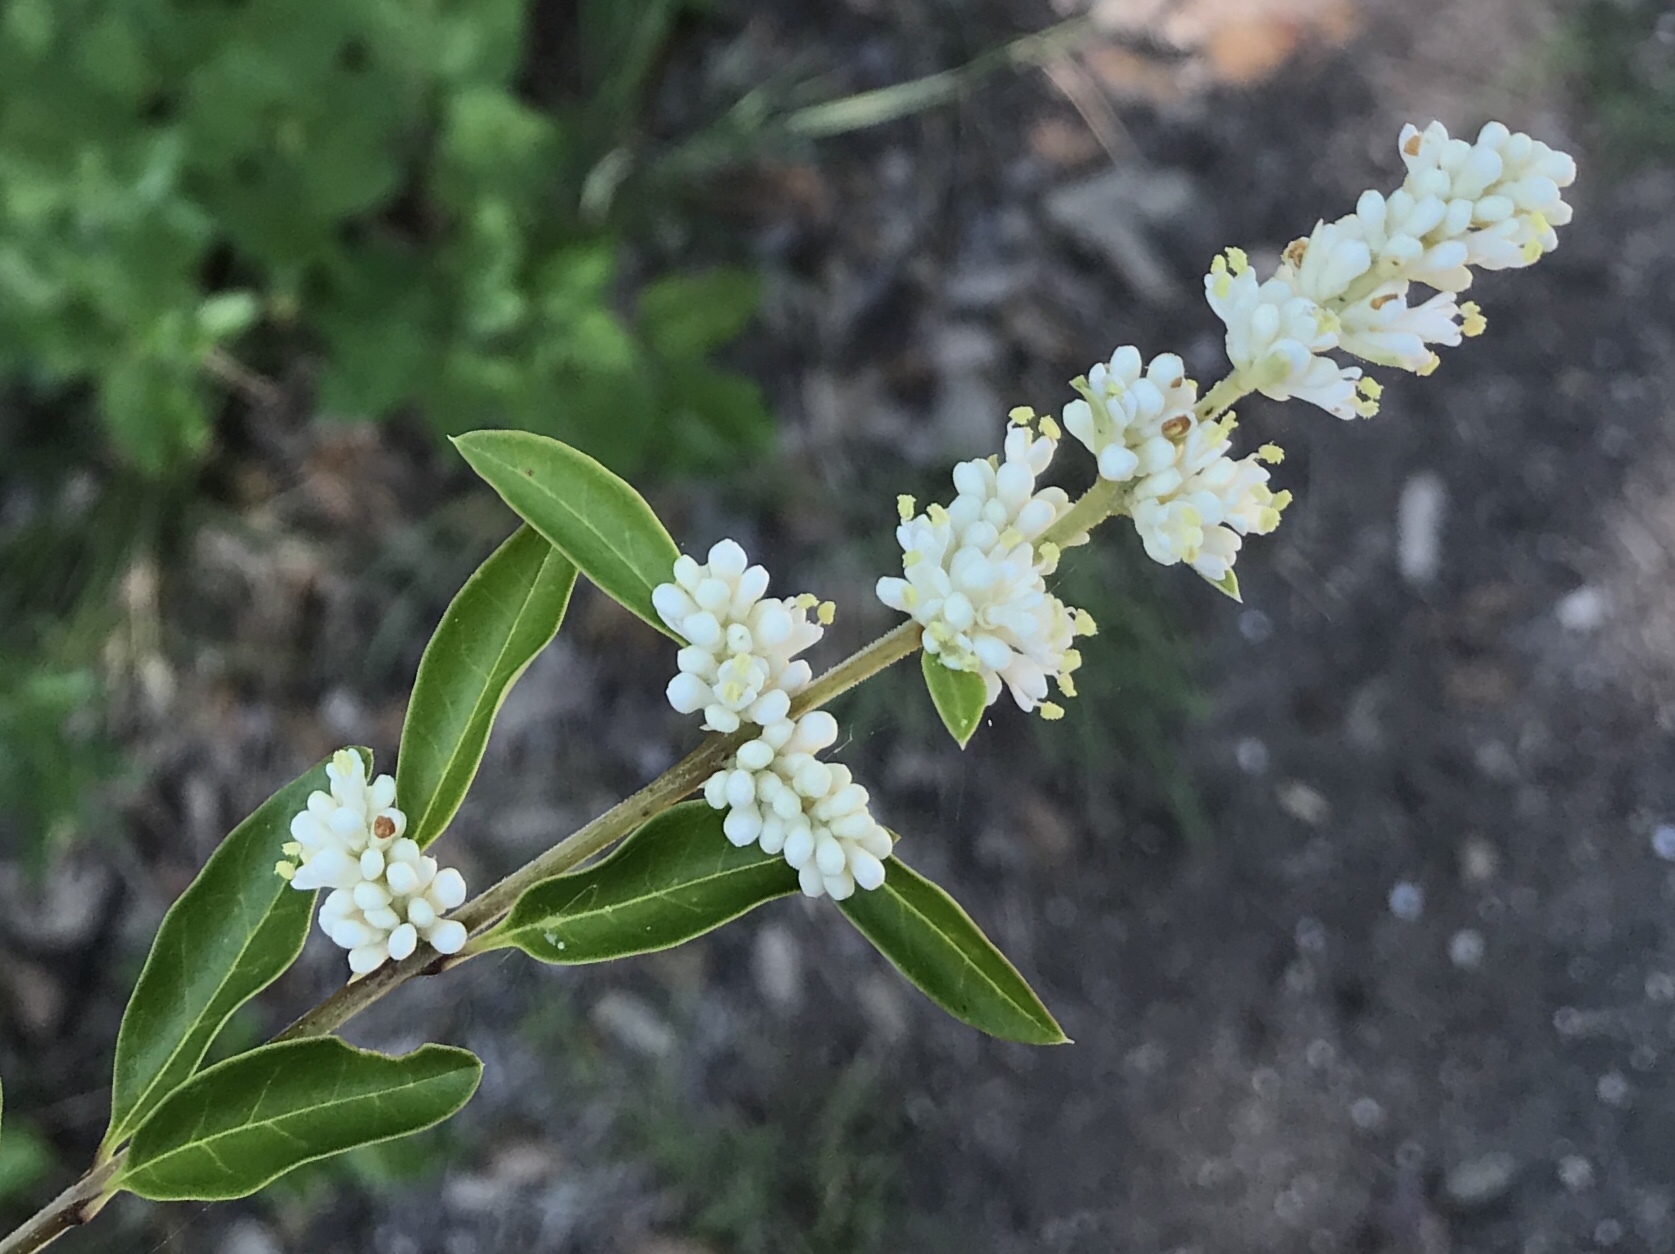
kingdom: Plantae
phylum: Tracheophyta
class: Magnoliopsida
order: Lamiales
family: Oleaceae
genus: Ligustrum
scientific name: Ligustrum quihoui
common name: Waxyleaf privet
